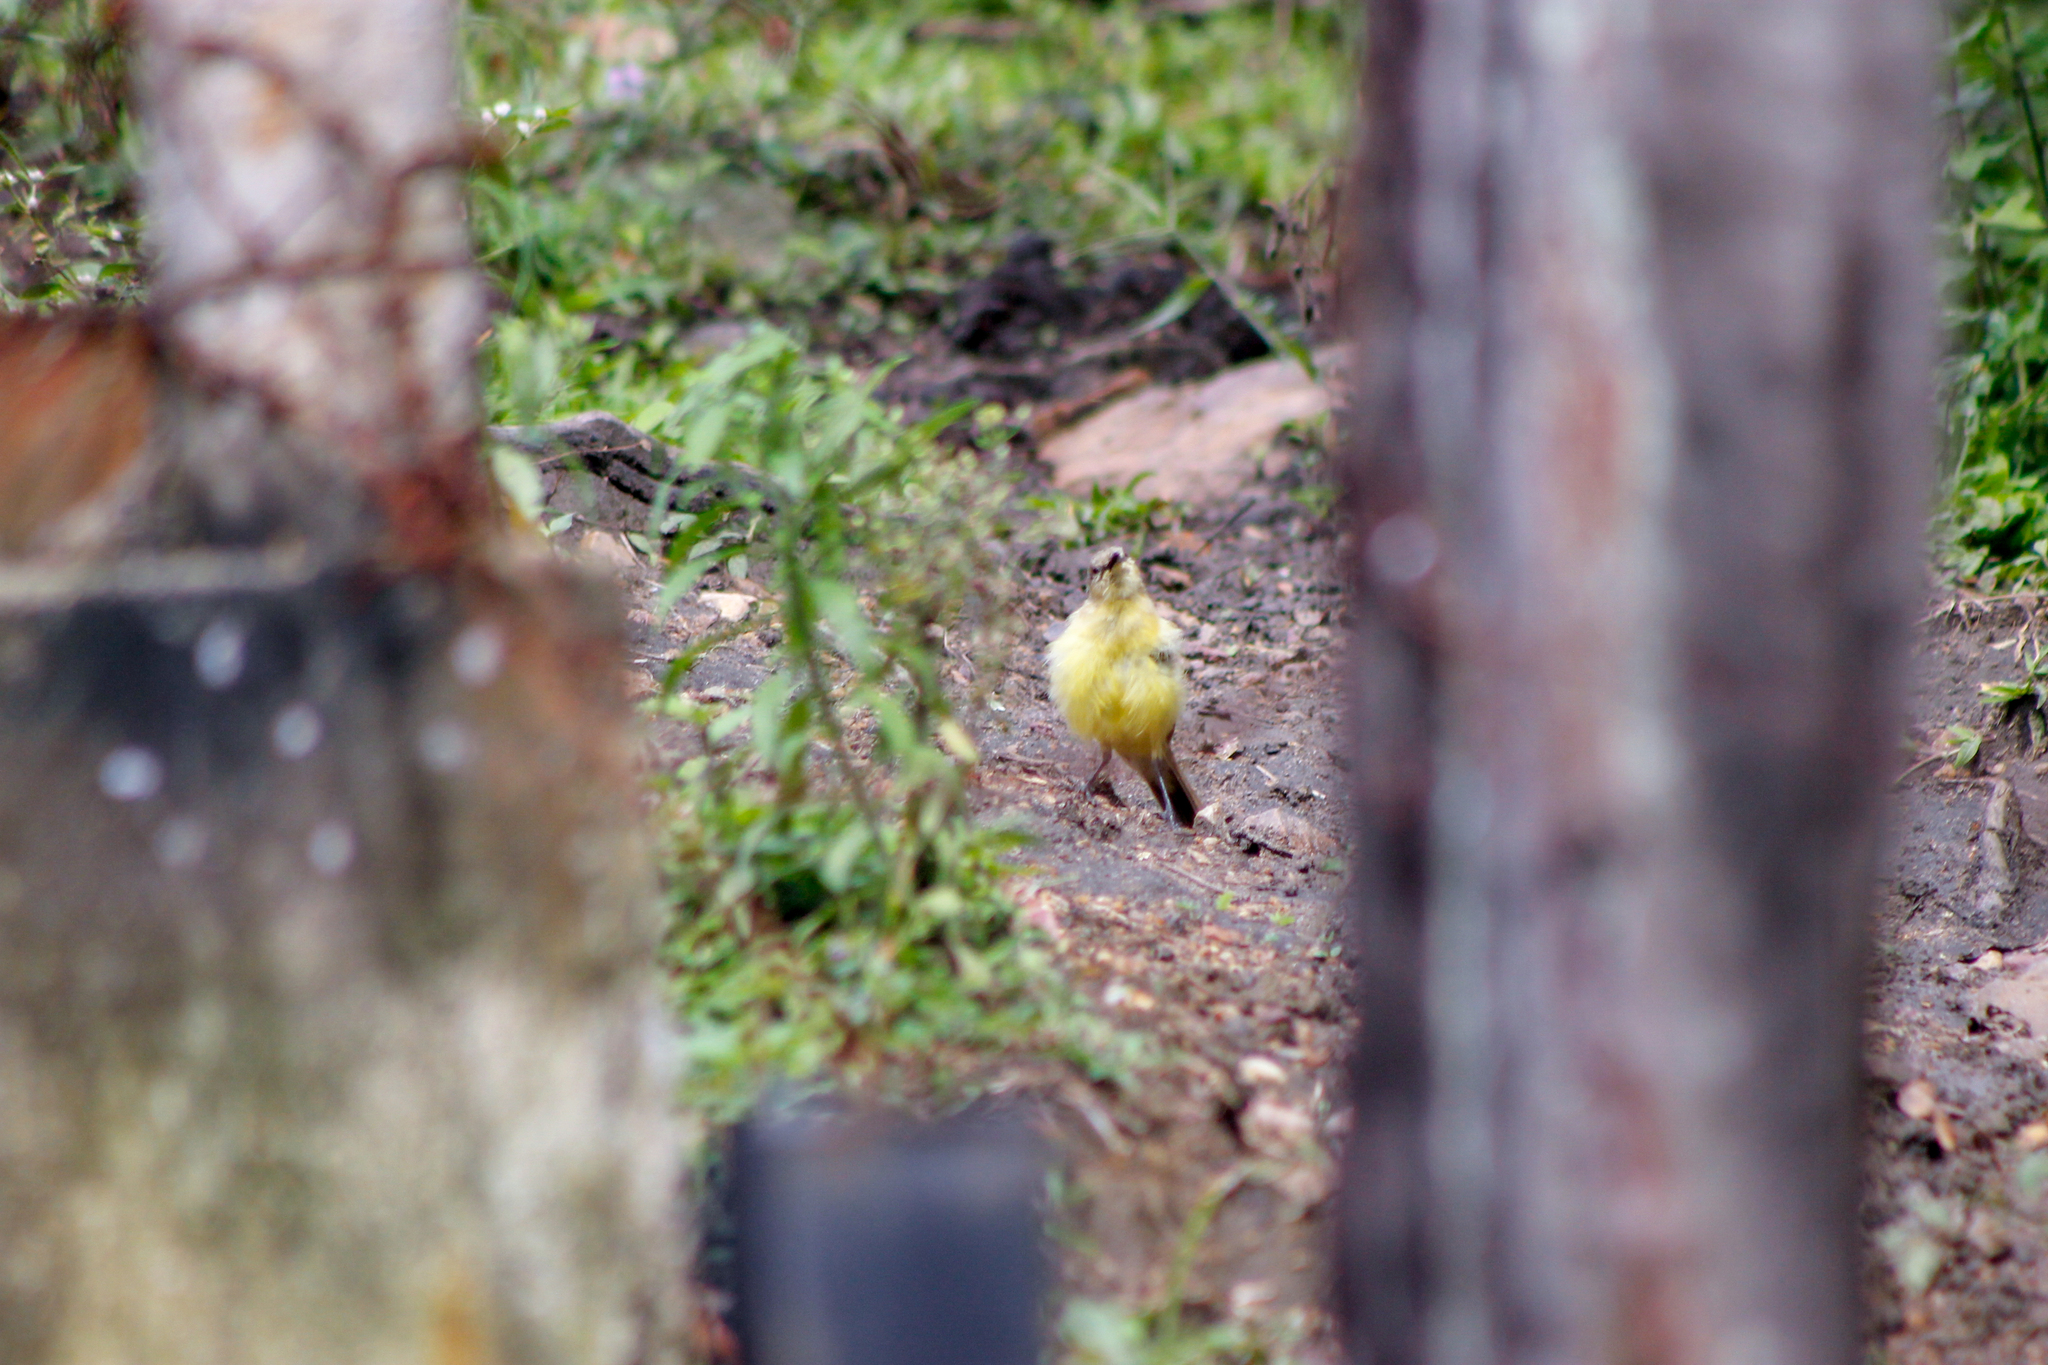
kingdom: Animalia
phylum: Chordata
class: Aves
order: Passeriformes
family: Tyrannidae
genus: Machetornis
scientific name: Machetornis rixosa
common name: Cattle tyrant
